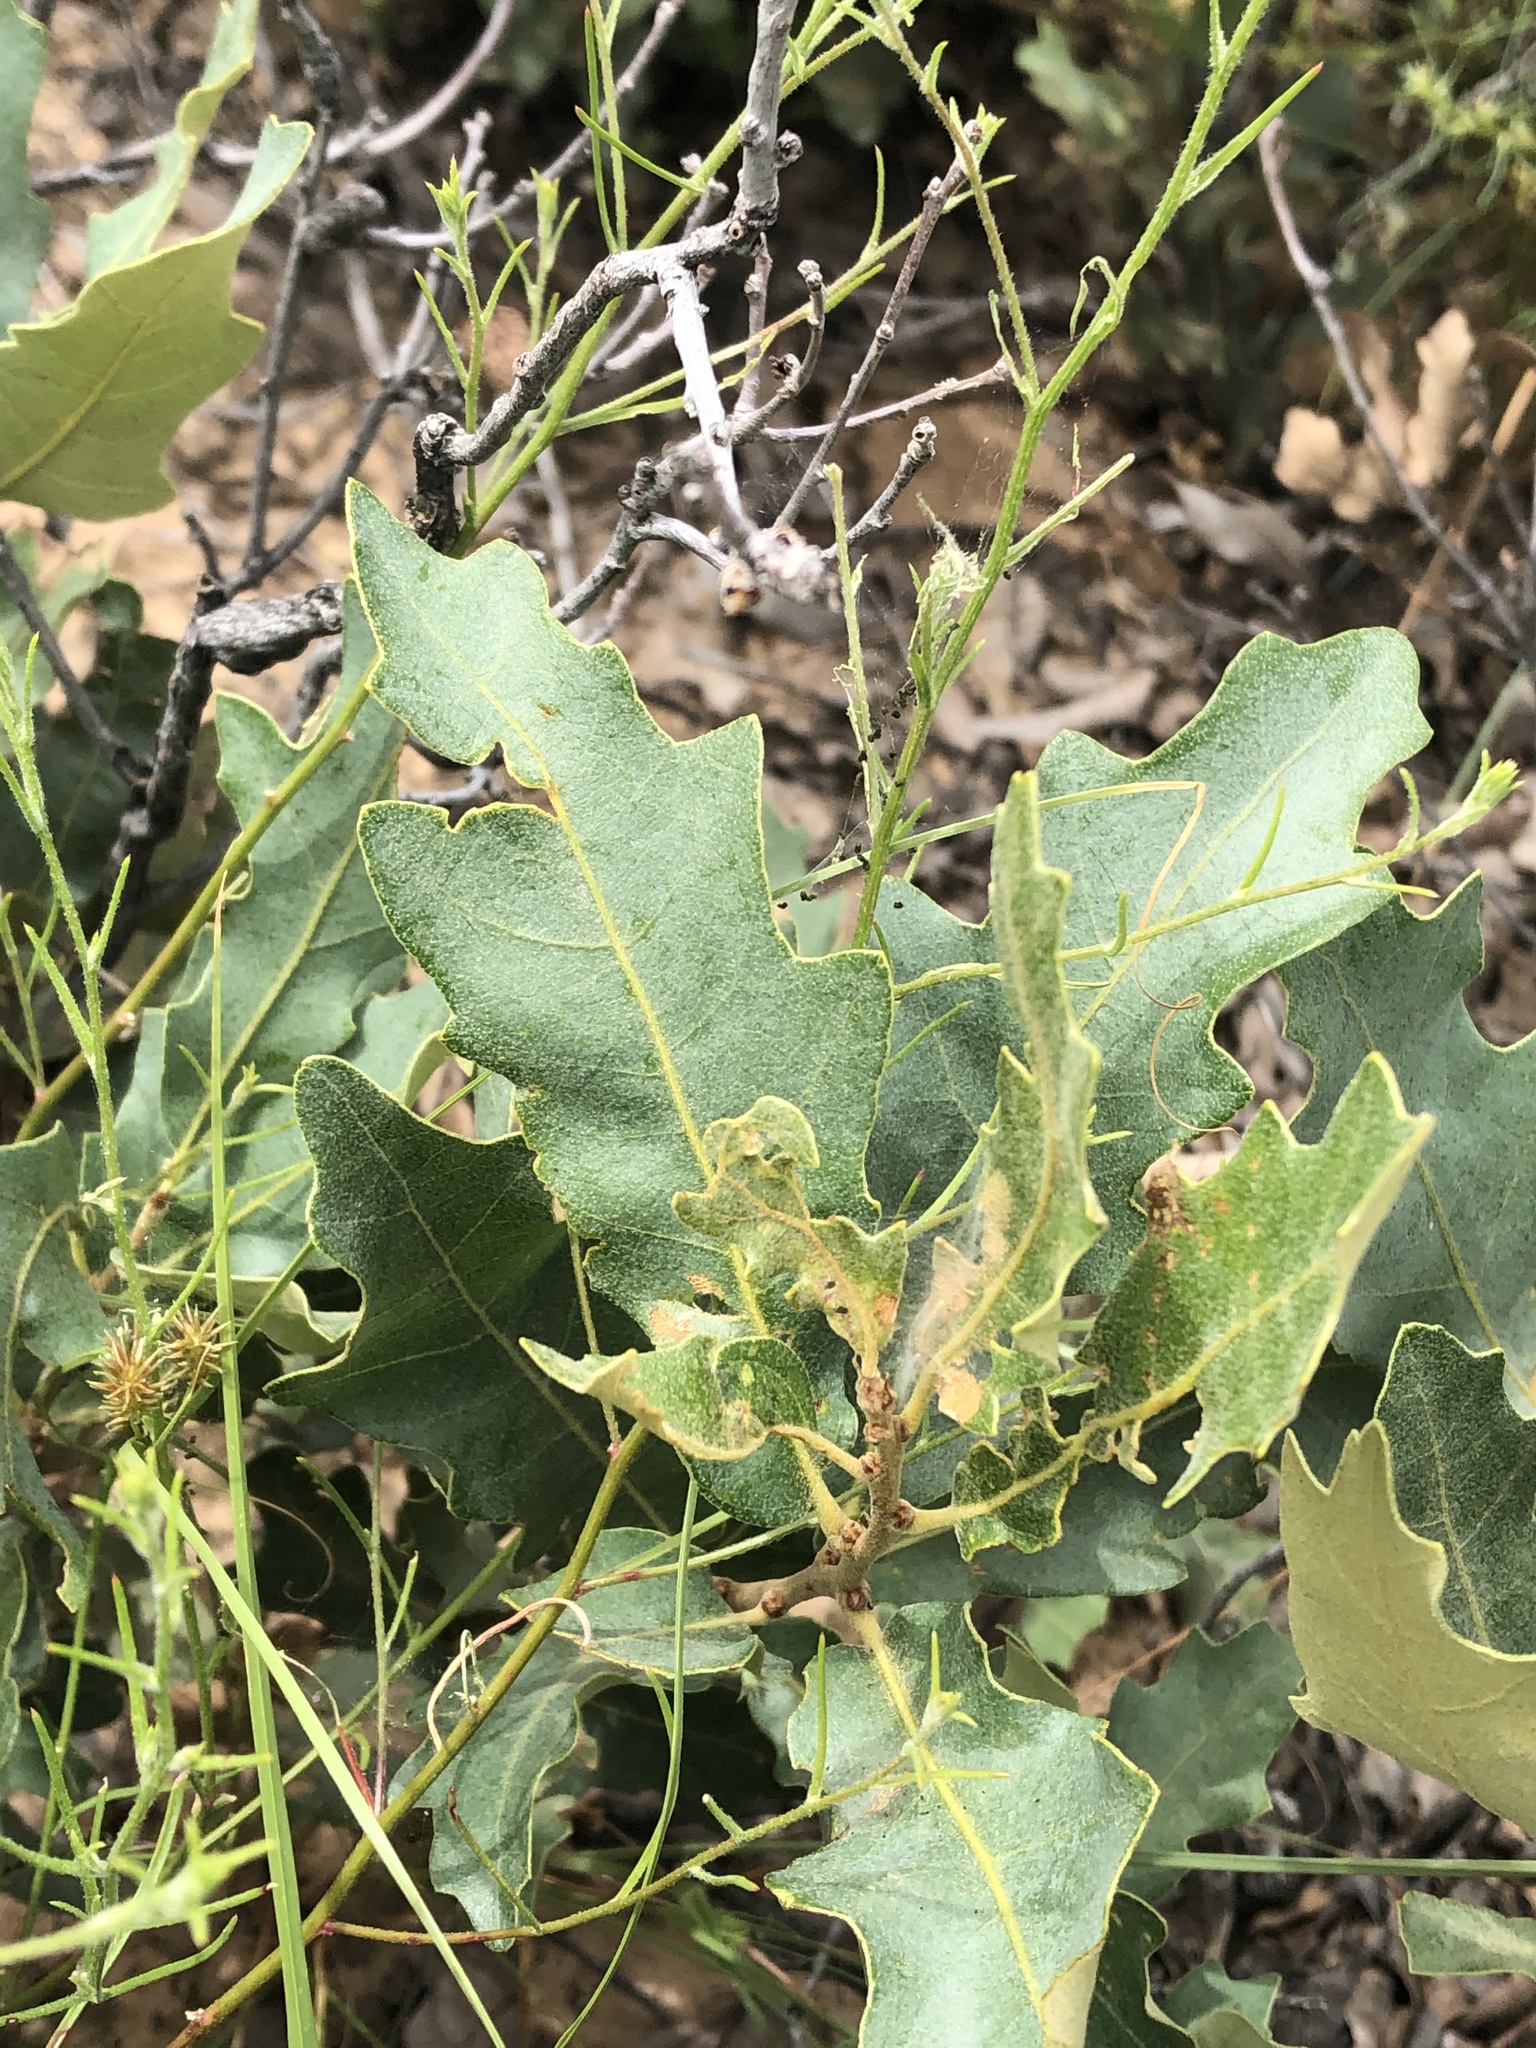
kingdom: Plantae
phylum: Tracheophyta
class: Magnoliopsida
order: Fagales
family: Fagaceae
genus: Quercus
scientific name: Quercus havardii
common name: Shinnery oak
